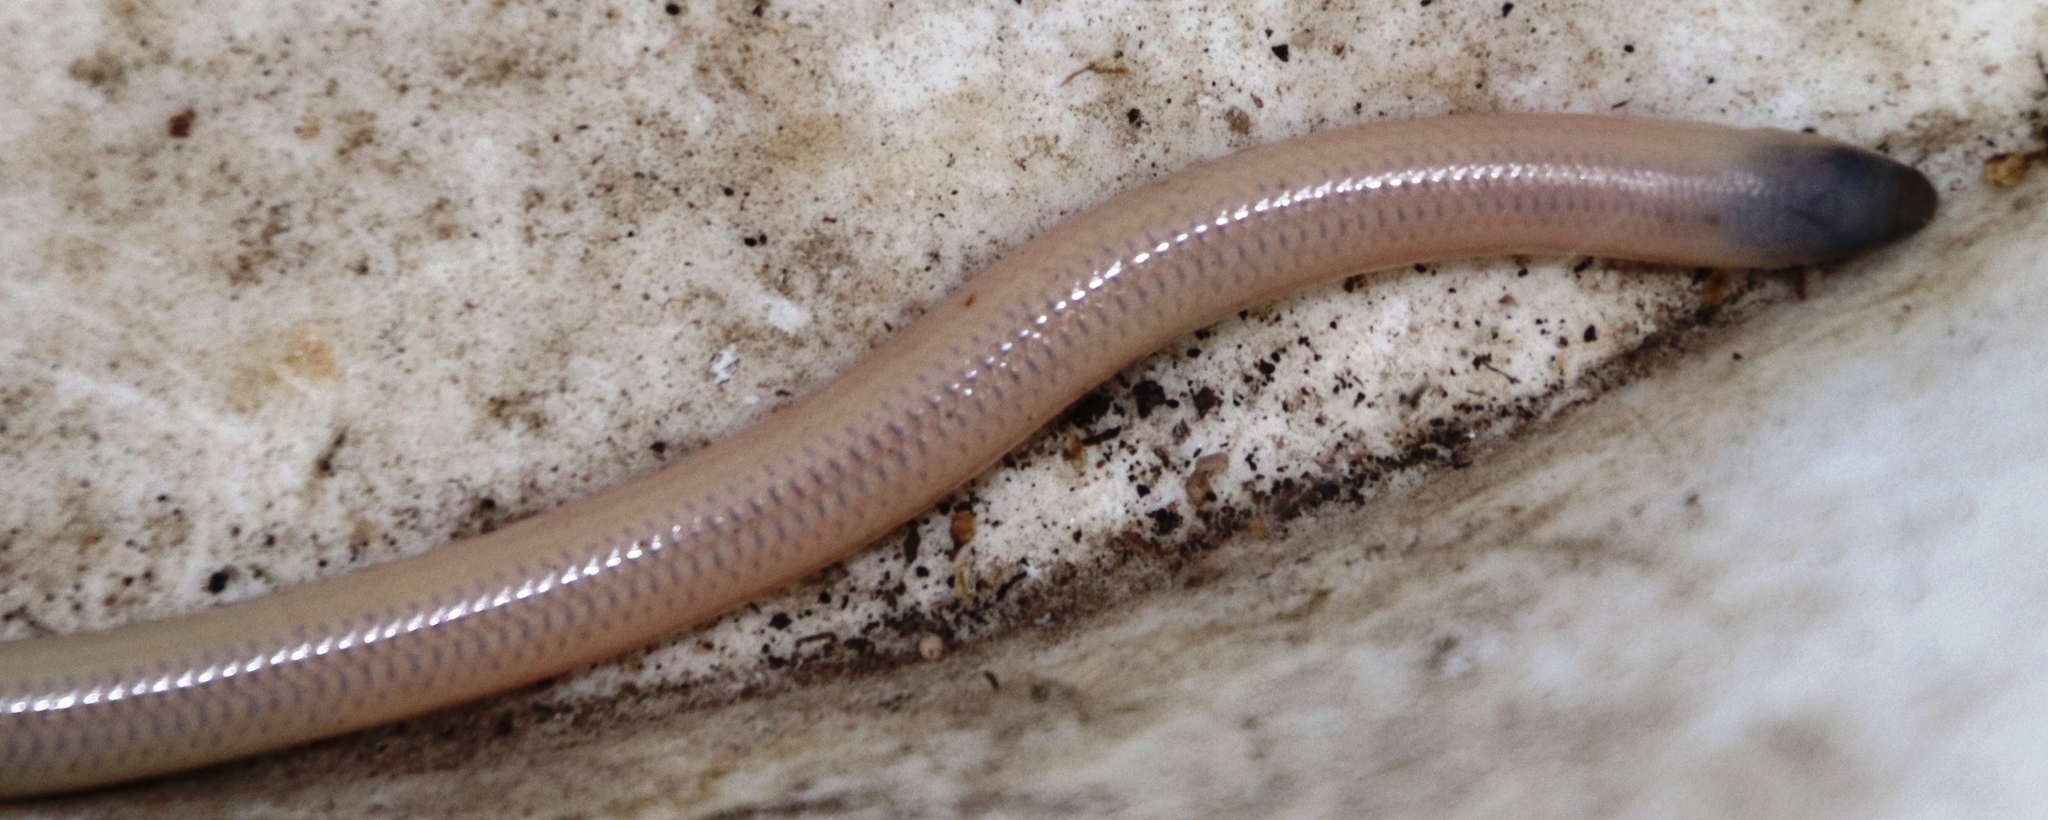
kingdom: Animalia
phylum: Chordata
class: Squamata
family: Scincidae
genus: Acontias
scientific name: Acontias meleagris
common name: Cape legless skink
